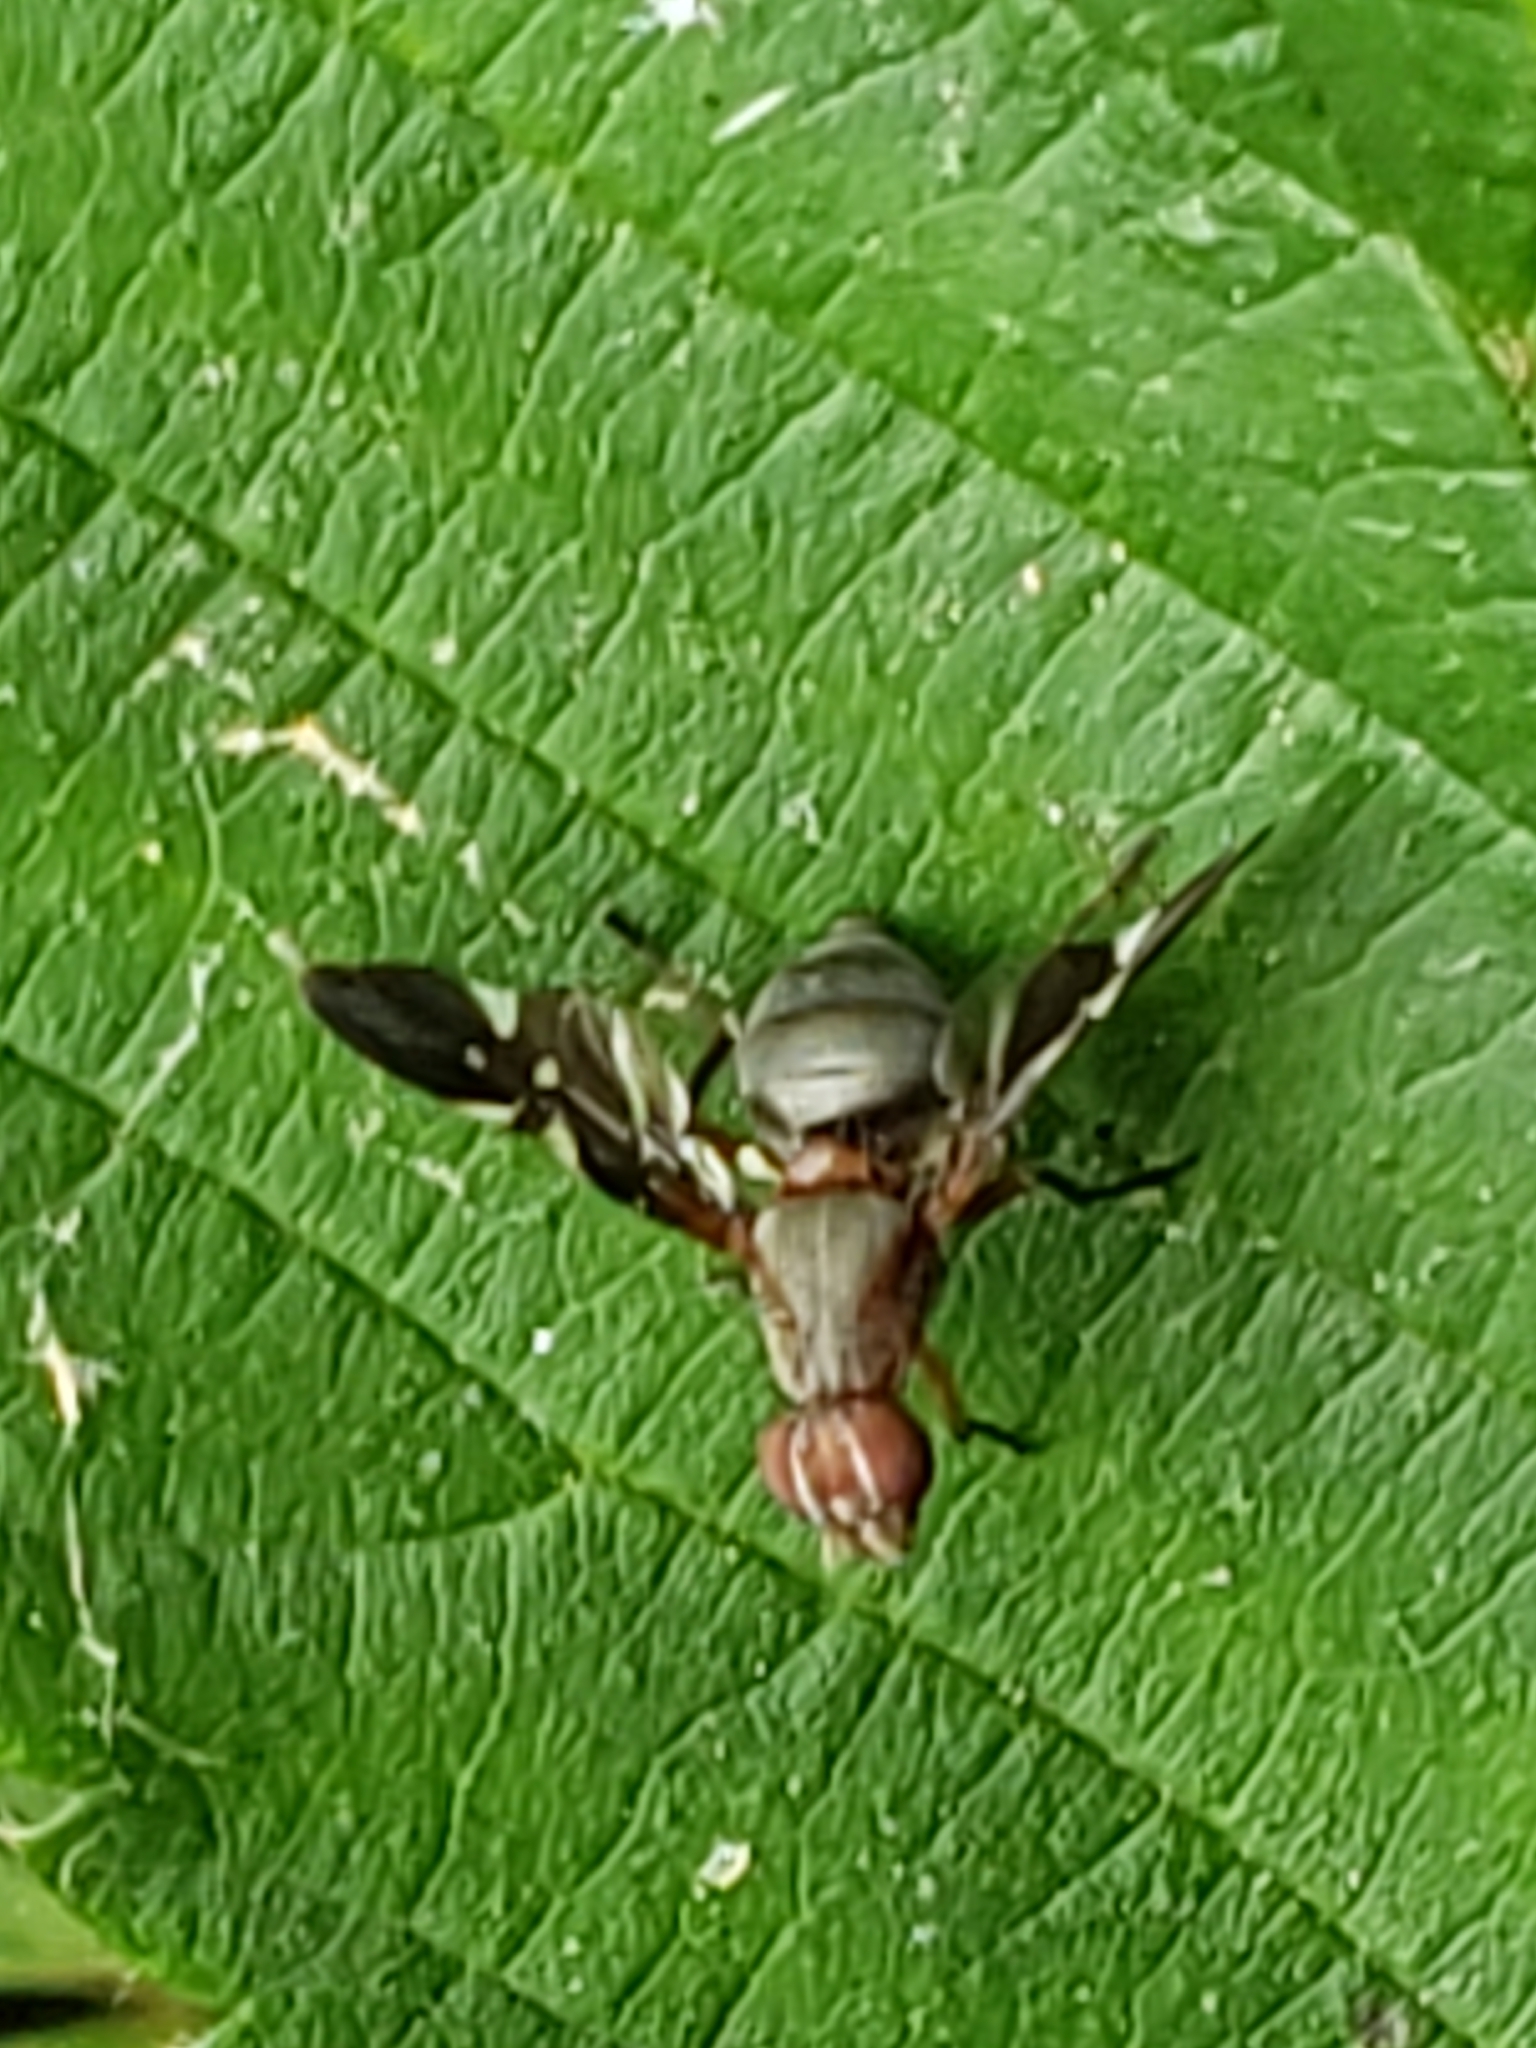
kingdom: Animalia
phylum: Arthropoda
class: Insecta
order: Diptera
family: Ulidiidae
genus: Delphinia
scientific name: Delphinia picta
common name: Common picture-winged fly
